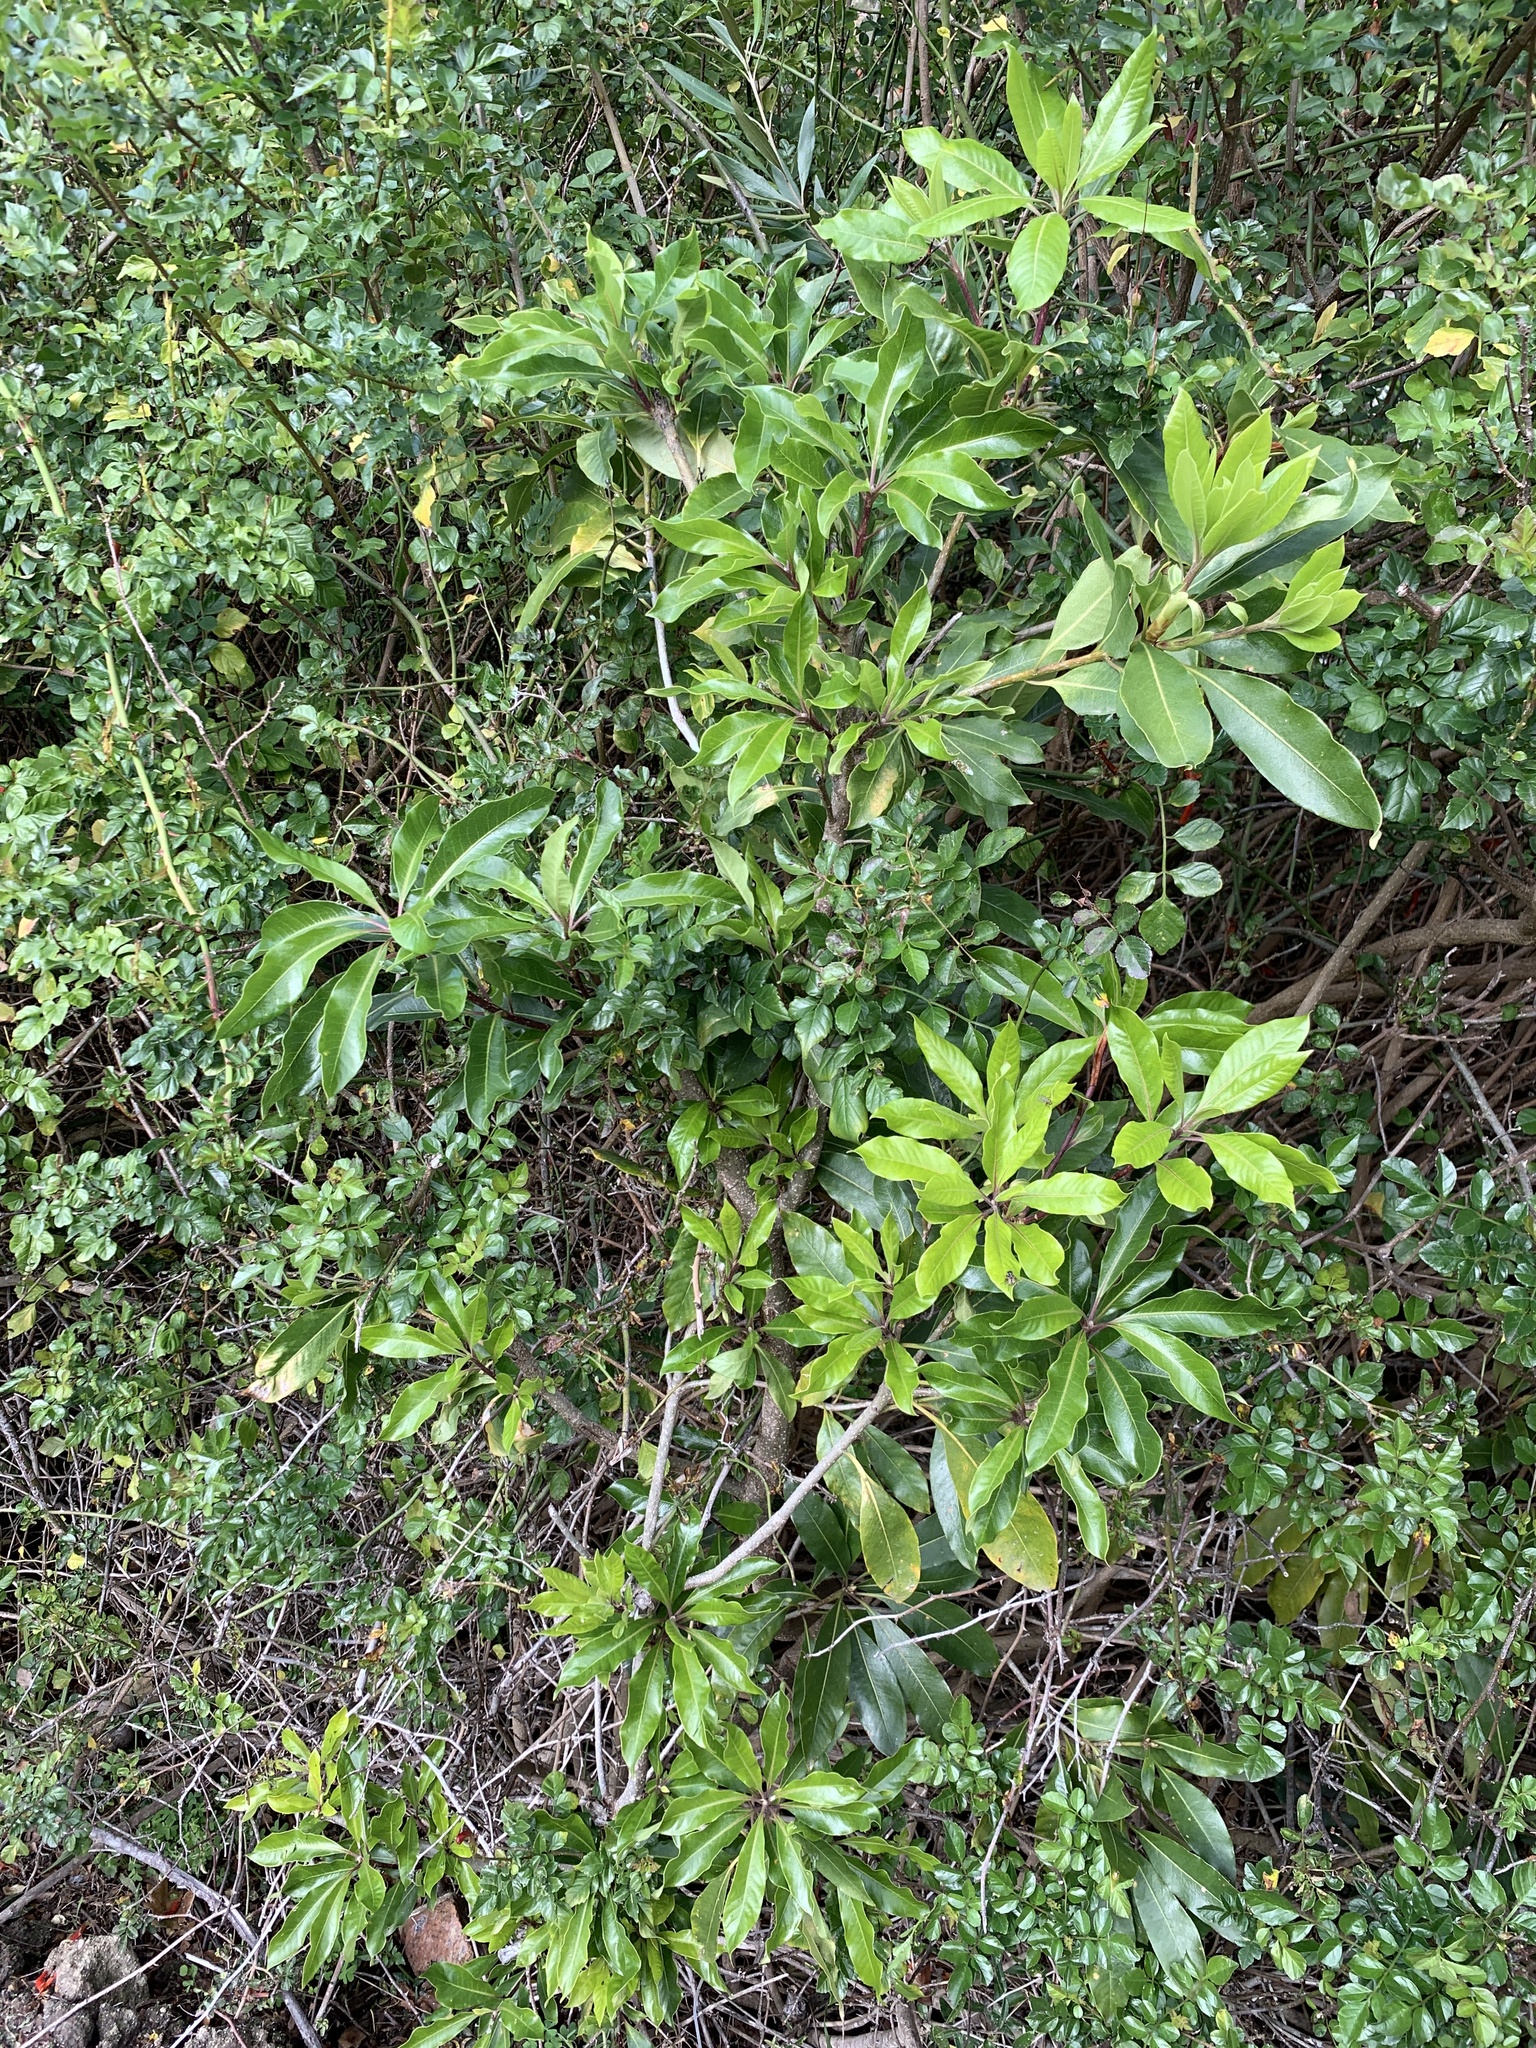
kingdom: Plantae
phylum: Tracheophyta
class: Magnoliopsida
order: Apiales
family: Pittosporaceae
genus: Pittosporum
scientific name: Pittosporum undulatum
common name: Australian cheesewood
